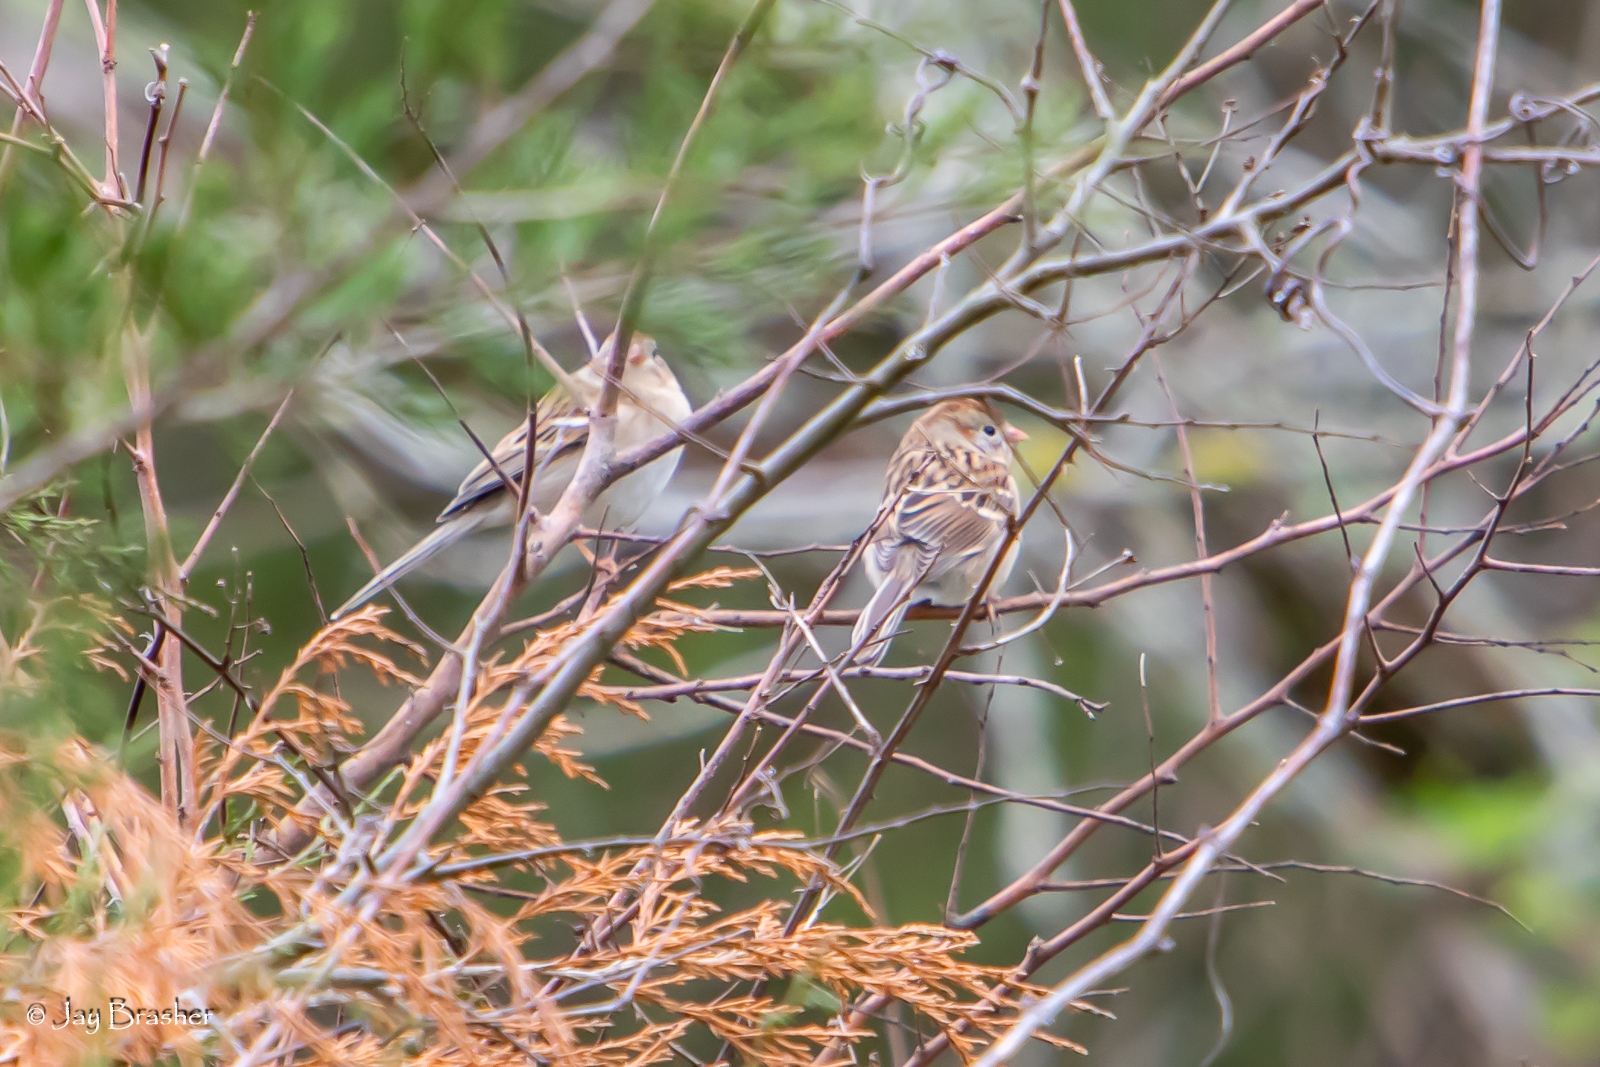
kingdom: Animalia
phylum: Chordata
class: Aves
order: Passeriformes
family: Passerellidae
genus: Spizella
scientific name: Spizella pusilla
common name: Field sparrow
